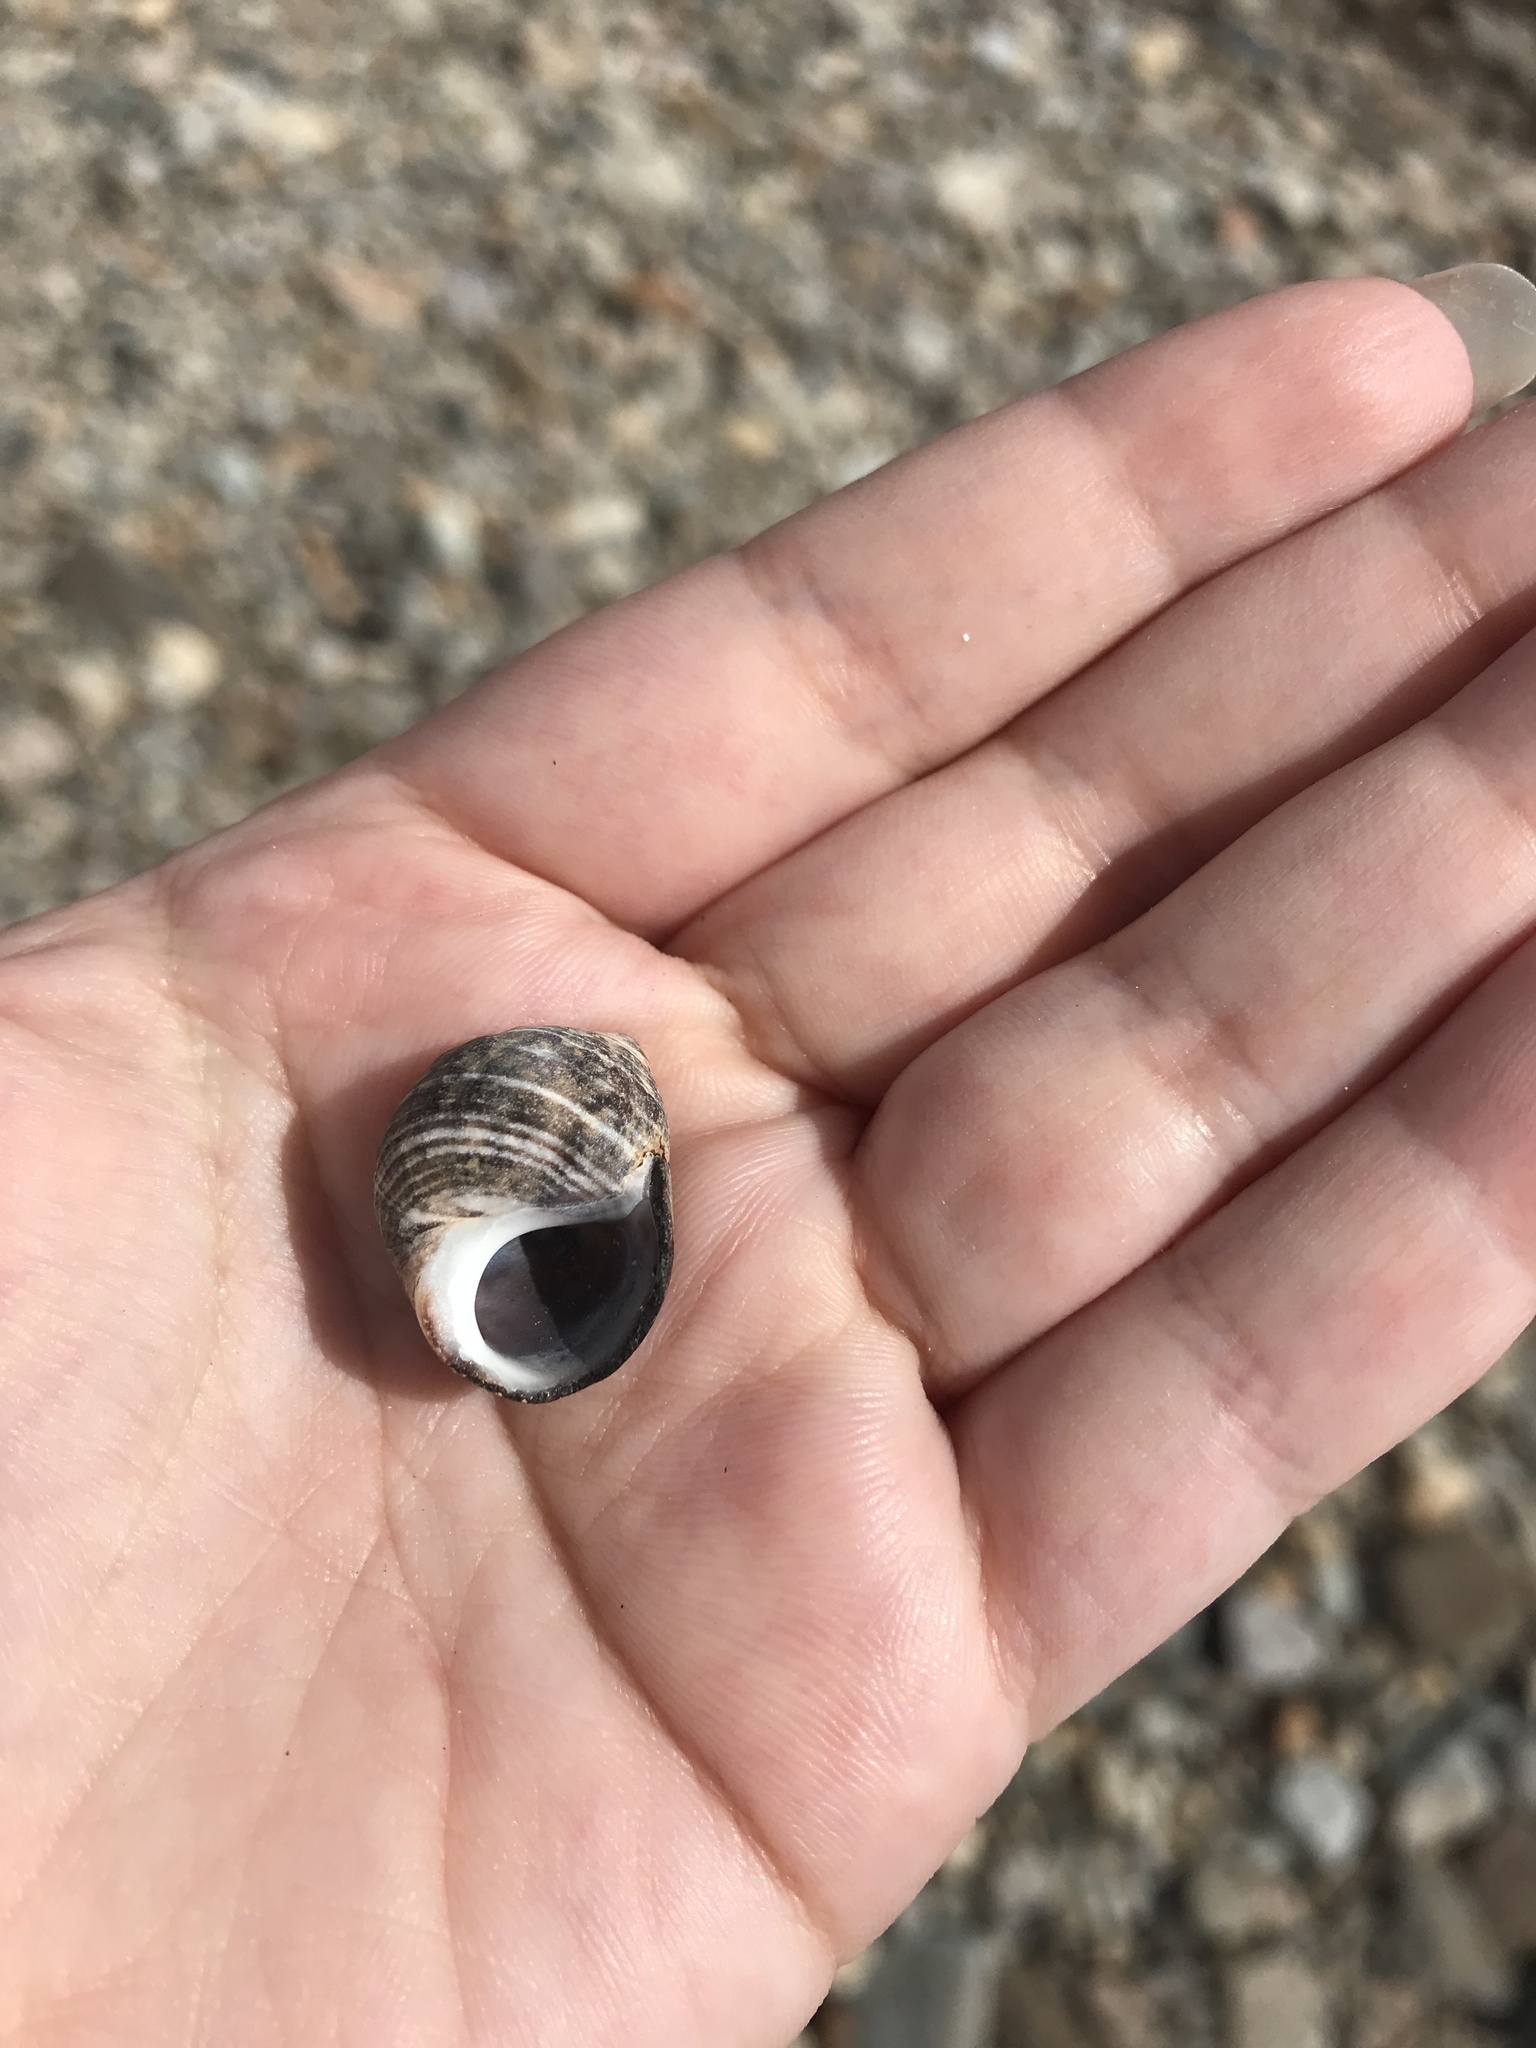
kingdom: Animalia
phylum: Mollusca
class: Gastropoda
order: Littorinimorpha
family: Littorinidae
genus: Littorina
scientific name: Littorina littorea
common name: Common periwinkle
